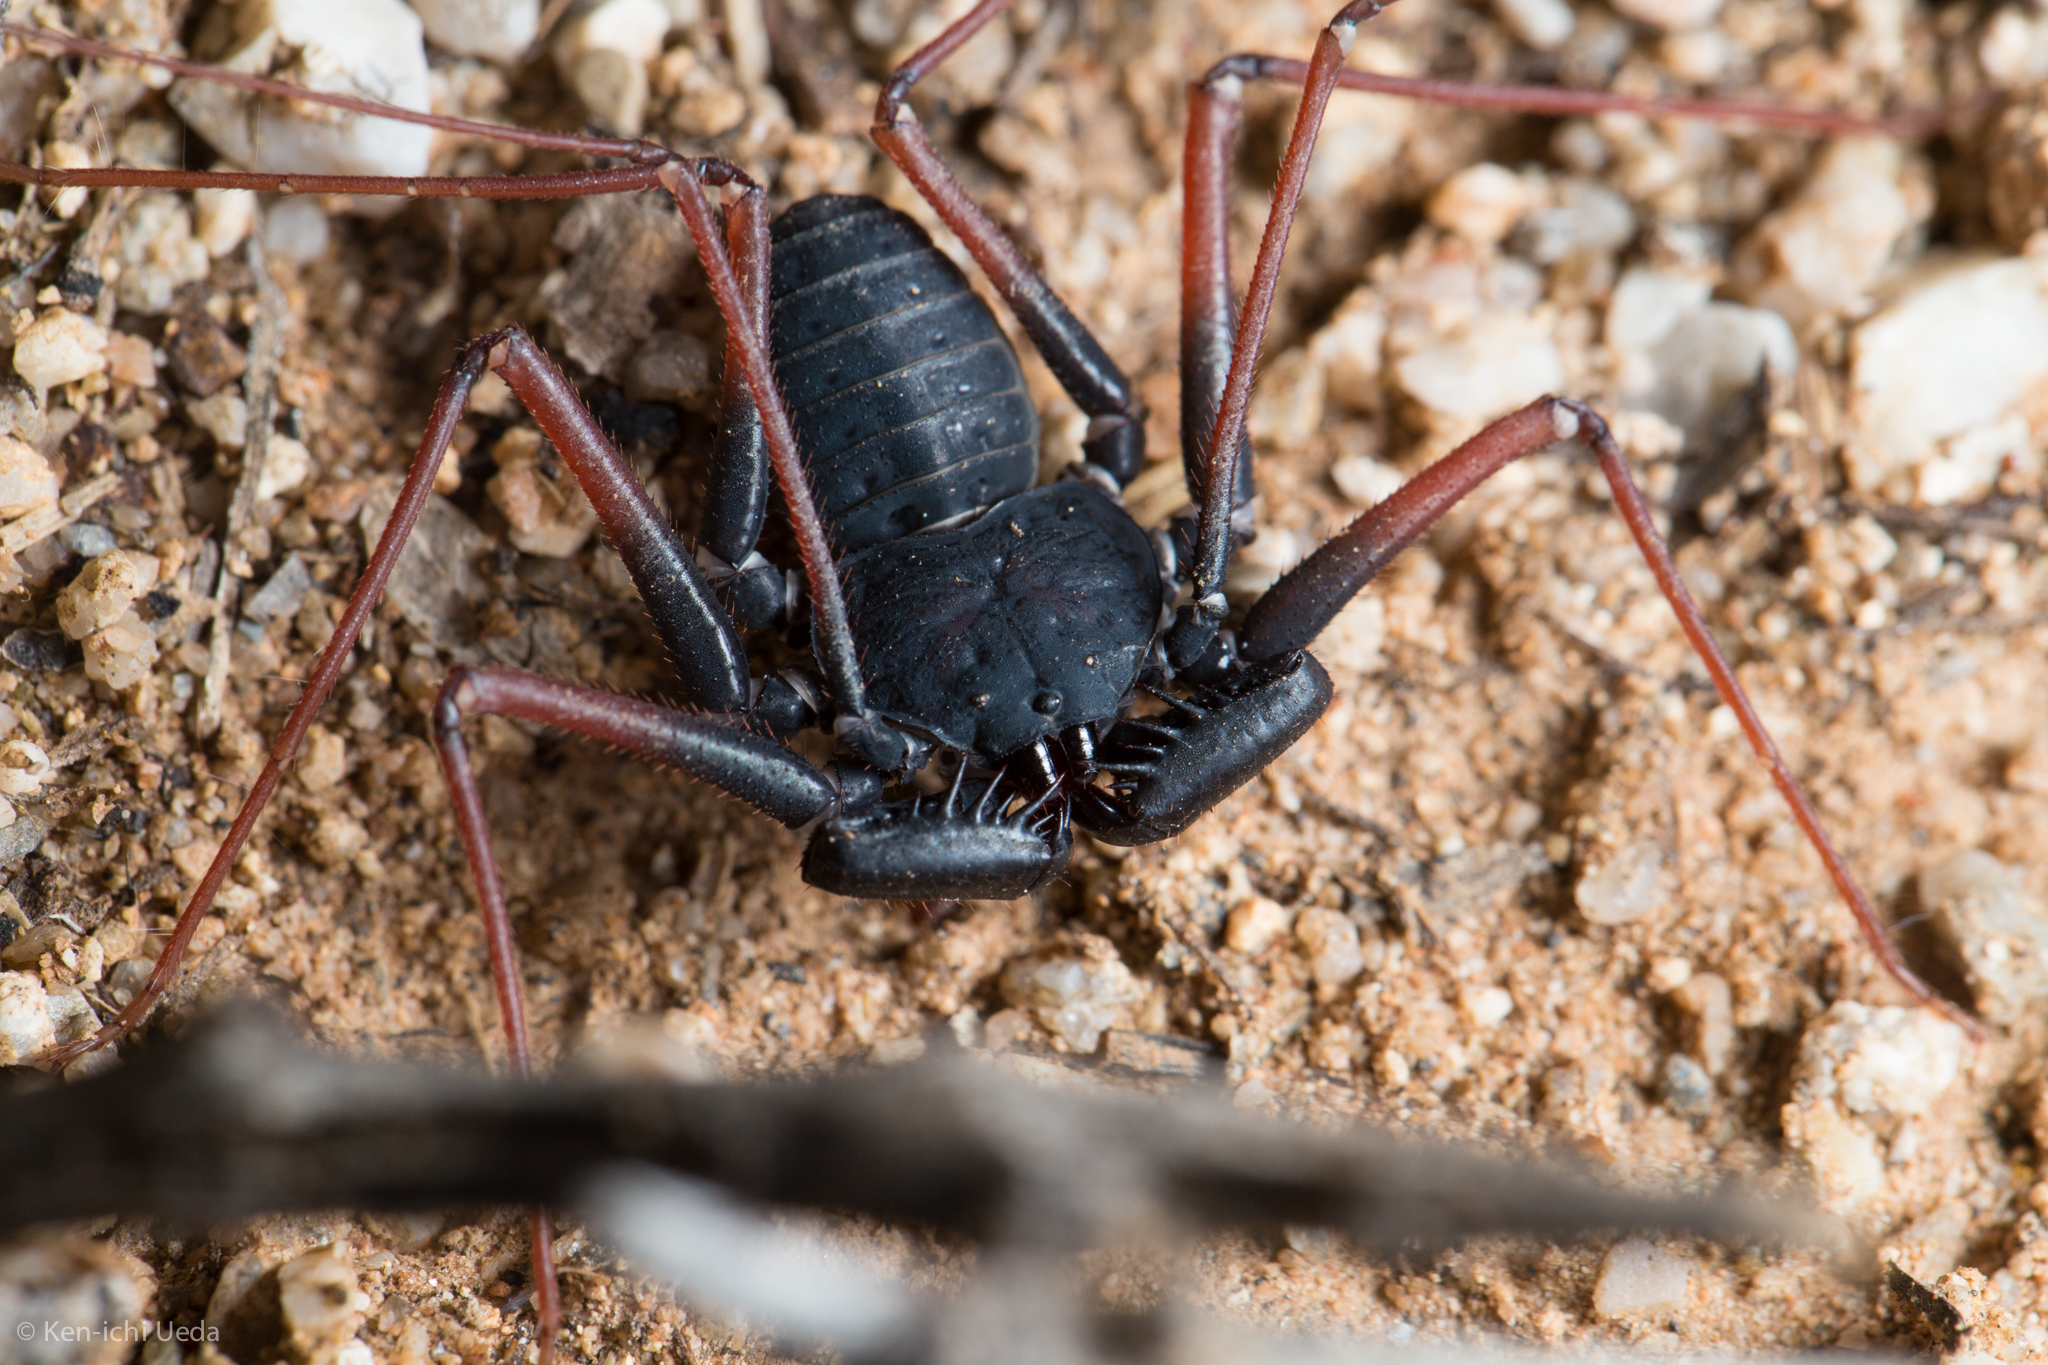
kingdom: Animalia
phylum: Arthropoda
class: Arachnida
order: Amblypygi
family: Phrynidae
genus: Paraphrynus
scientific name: Paraphrynus carolynae
